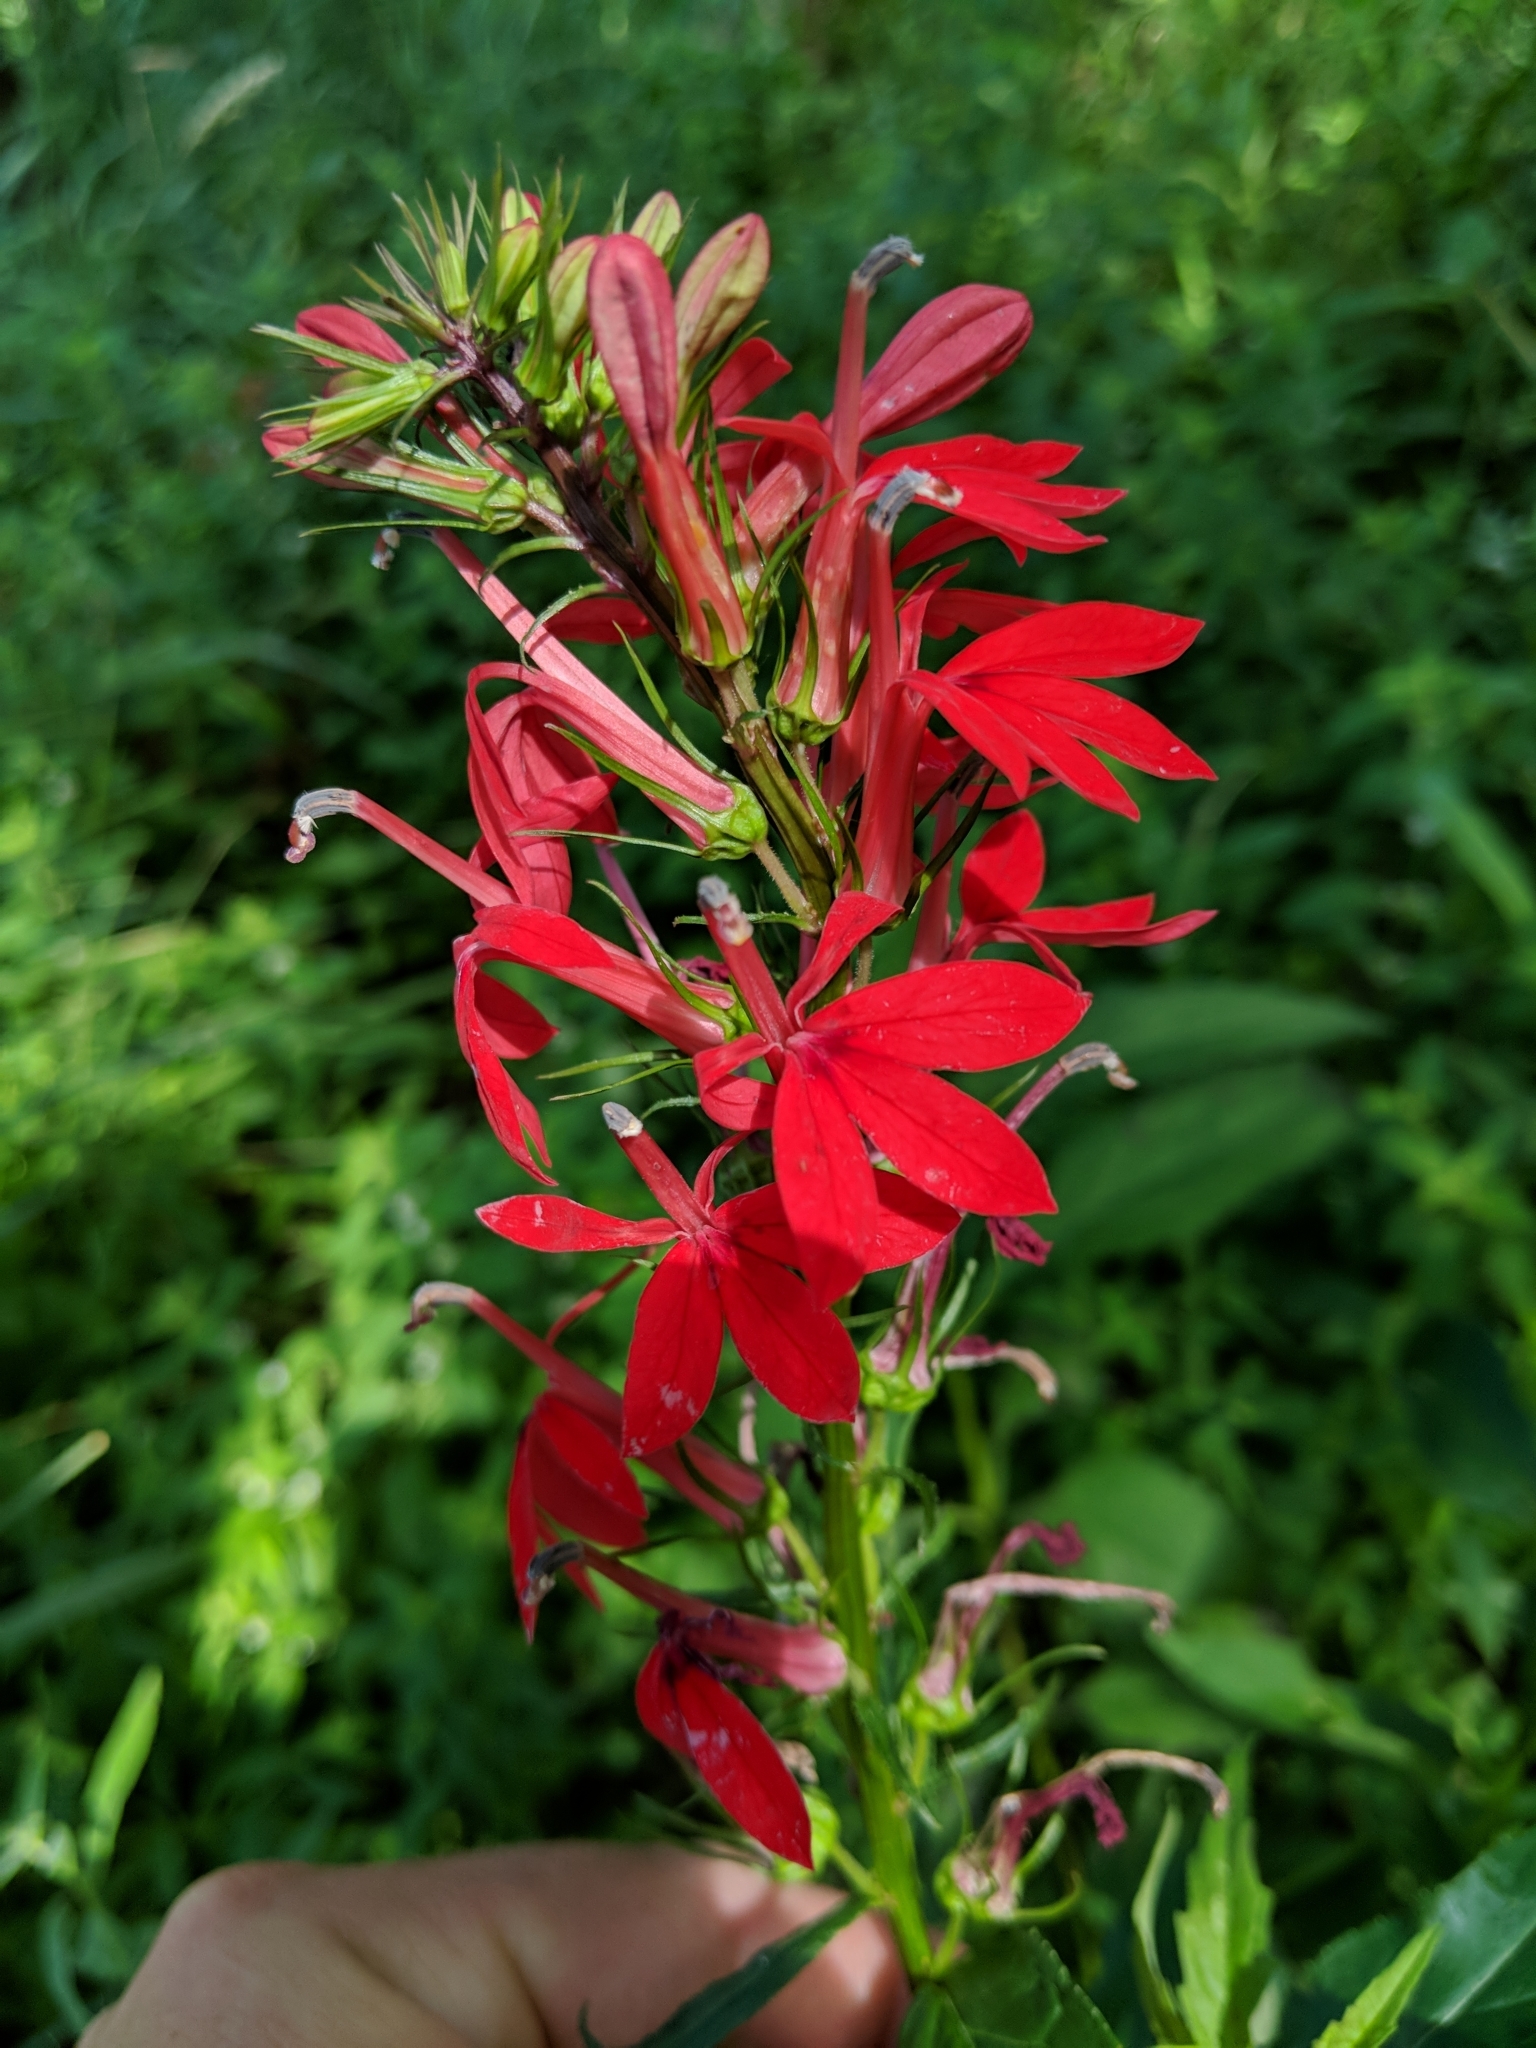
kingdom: Plantae
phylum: Tracheophyta
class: Magnoliopsida
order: Asterales
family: Campanulaceae
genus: Lobelia
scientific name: Lobelia cardinalis
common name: Cardinal flower
